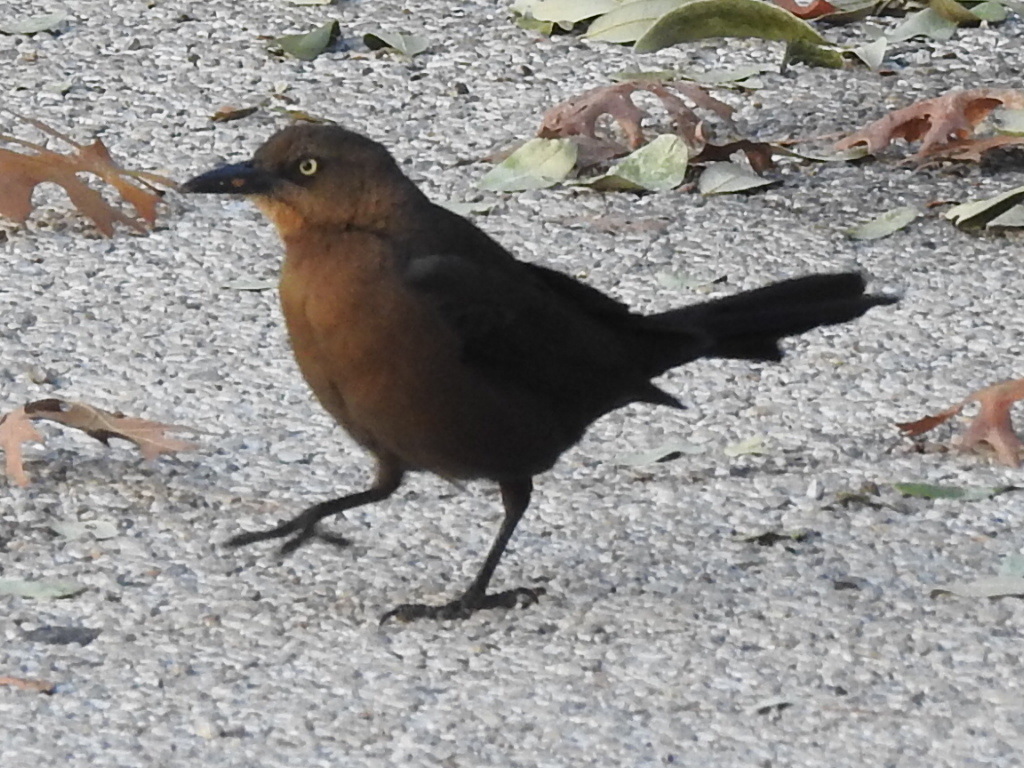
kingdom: Animalia
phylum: Chordata
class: Aves
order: Passeriformes
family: Icteridae
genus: Quiscalus
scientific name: Quiscalus mexicanus
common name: Great-tailed grackle
